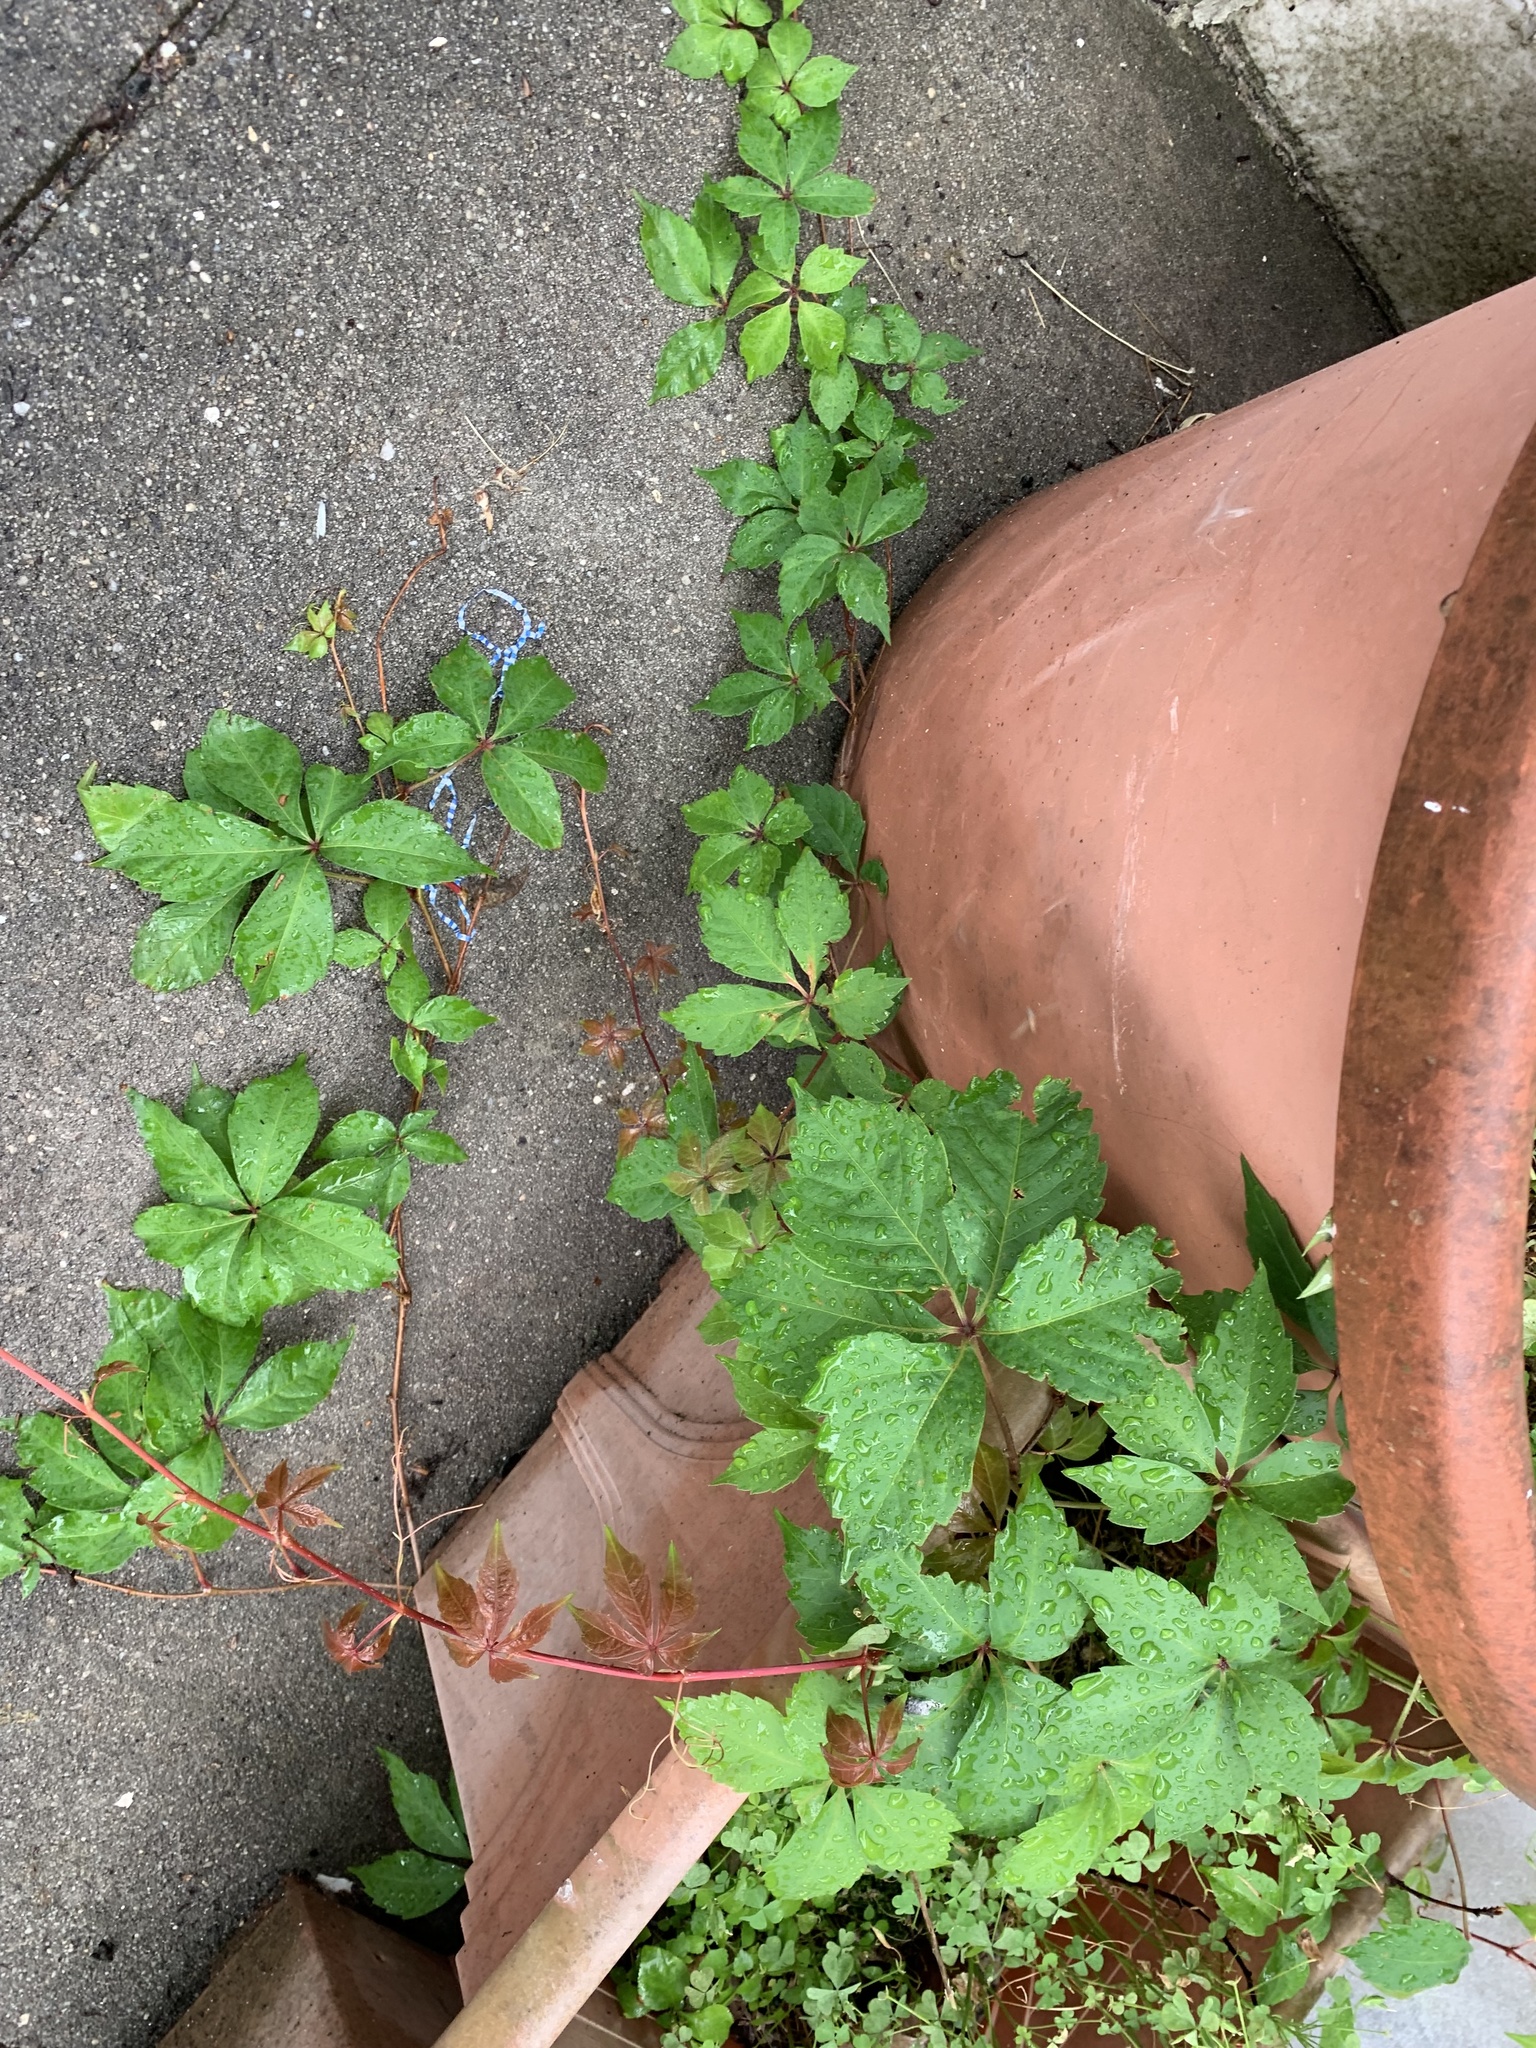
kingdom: Plantae
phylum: Tracheophyta
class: Magnoliopsida
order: Vitales
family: Vitaceae
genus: Parthenocissus
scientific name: Parthenocissus quinquefolia
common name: Virginia-creeper
